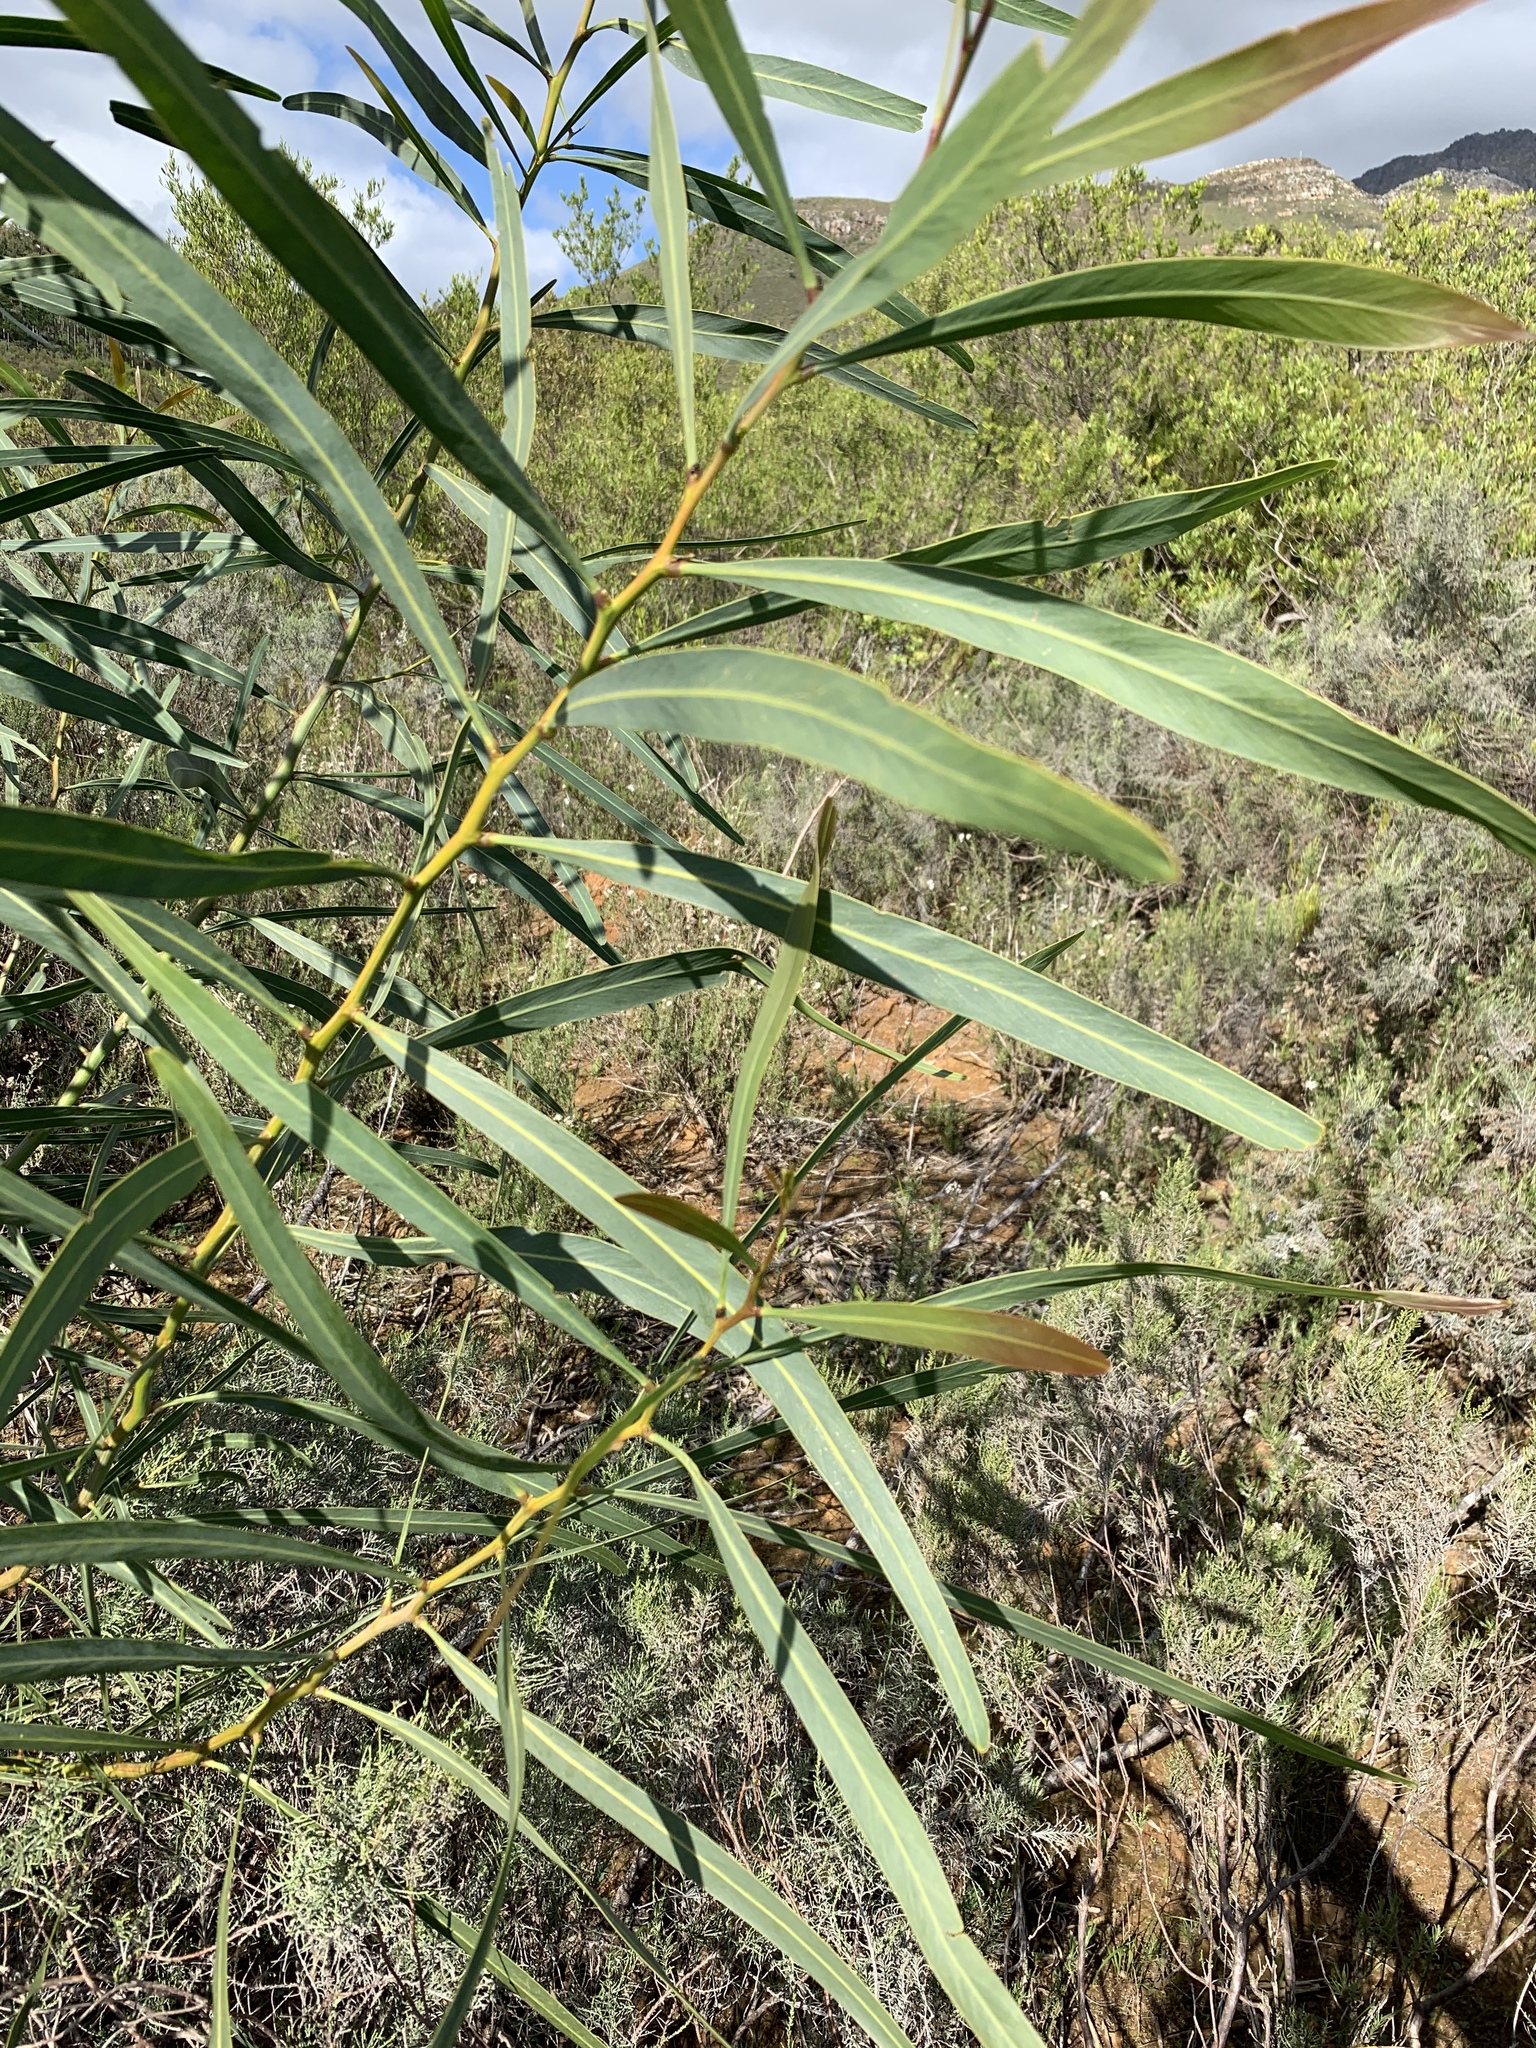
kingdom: Plantae
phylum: Tracheophyta
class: Magnoliopsida
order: Fabales
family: Fabaceae
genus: Acacia
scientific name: Acacia saligna
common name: Orange wattle
